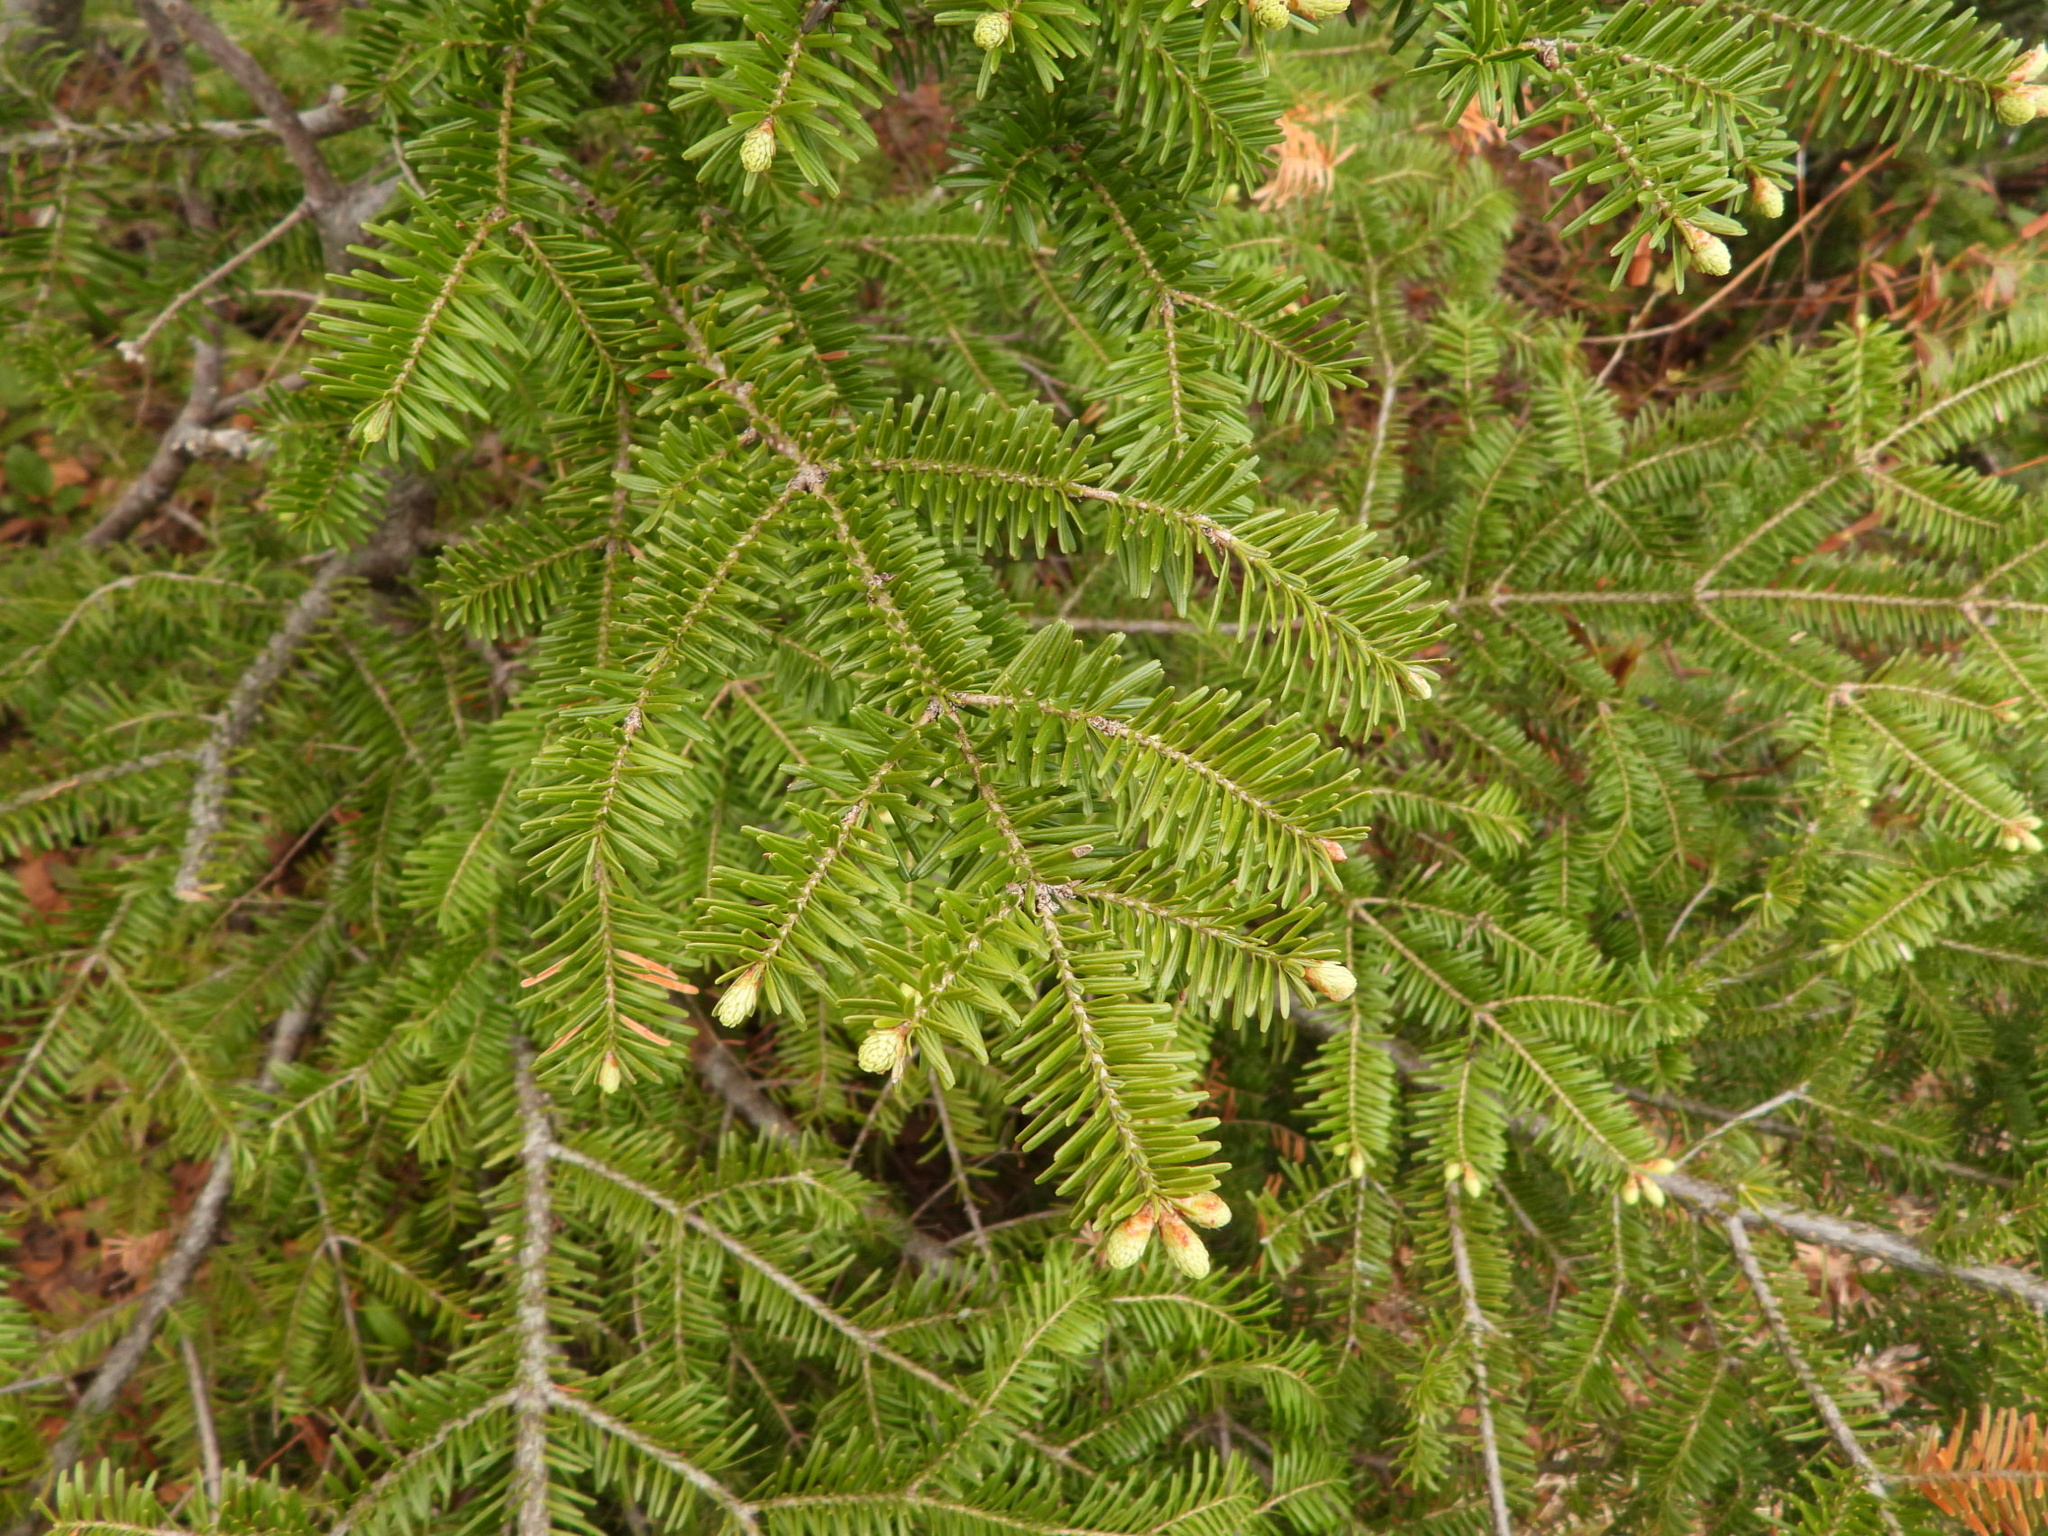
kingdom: Plantae
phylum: Tracheophyta
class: Pinopsida
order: Pinales
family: Pinaceae
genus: Abies
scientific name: Abies balsamea
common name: Balsam fir
